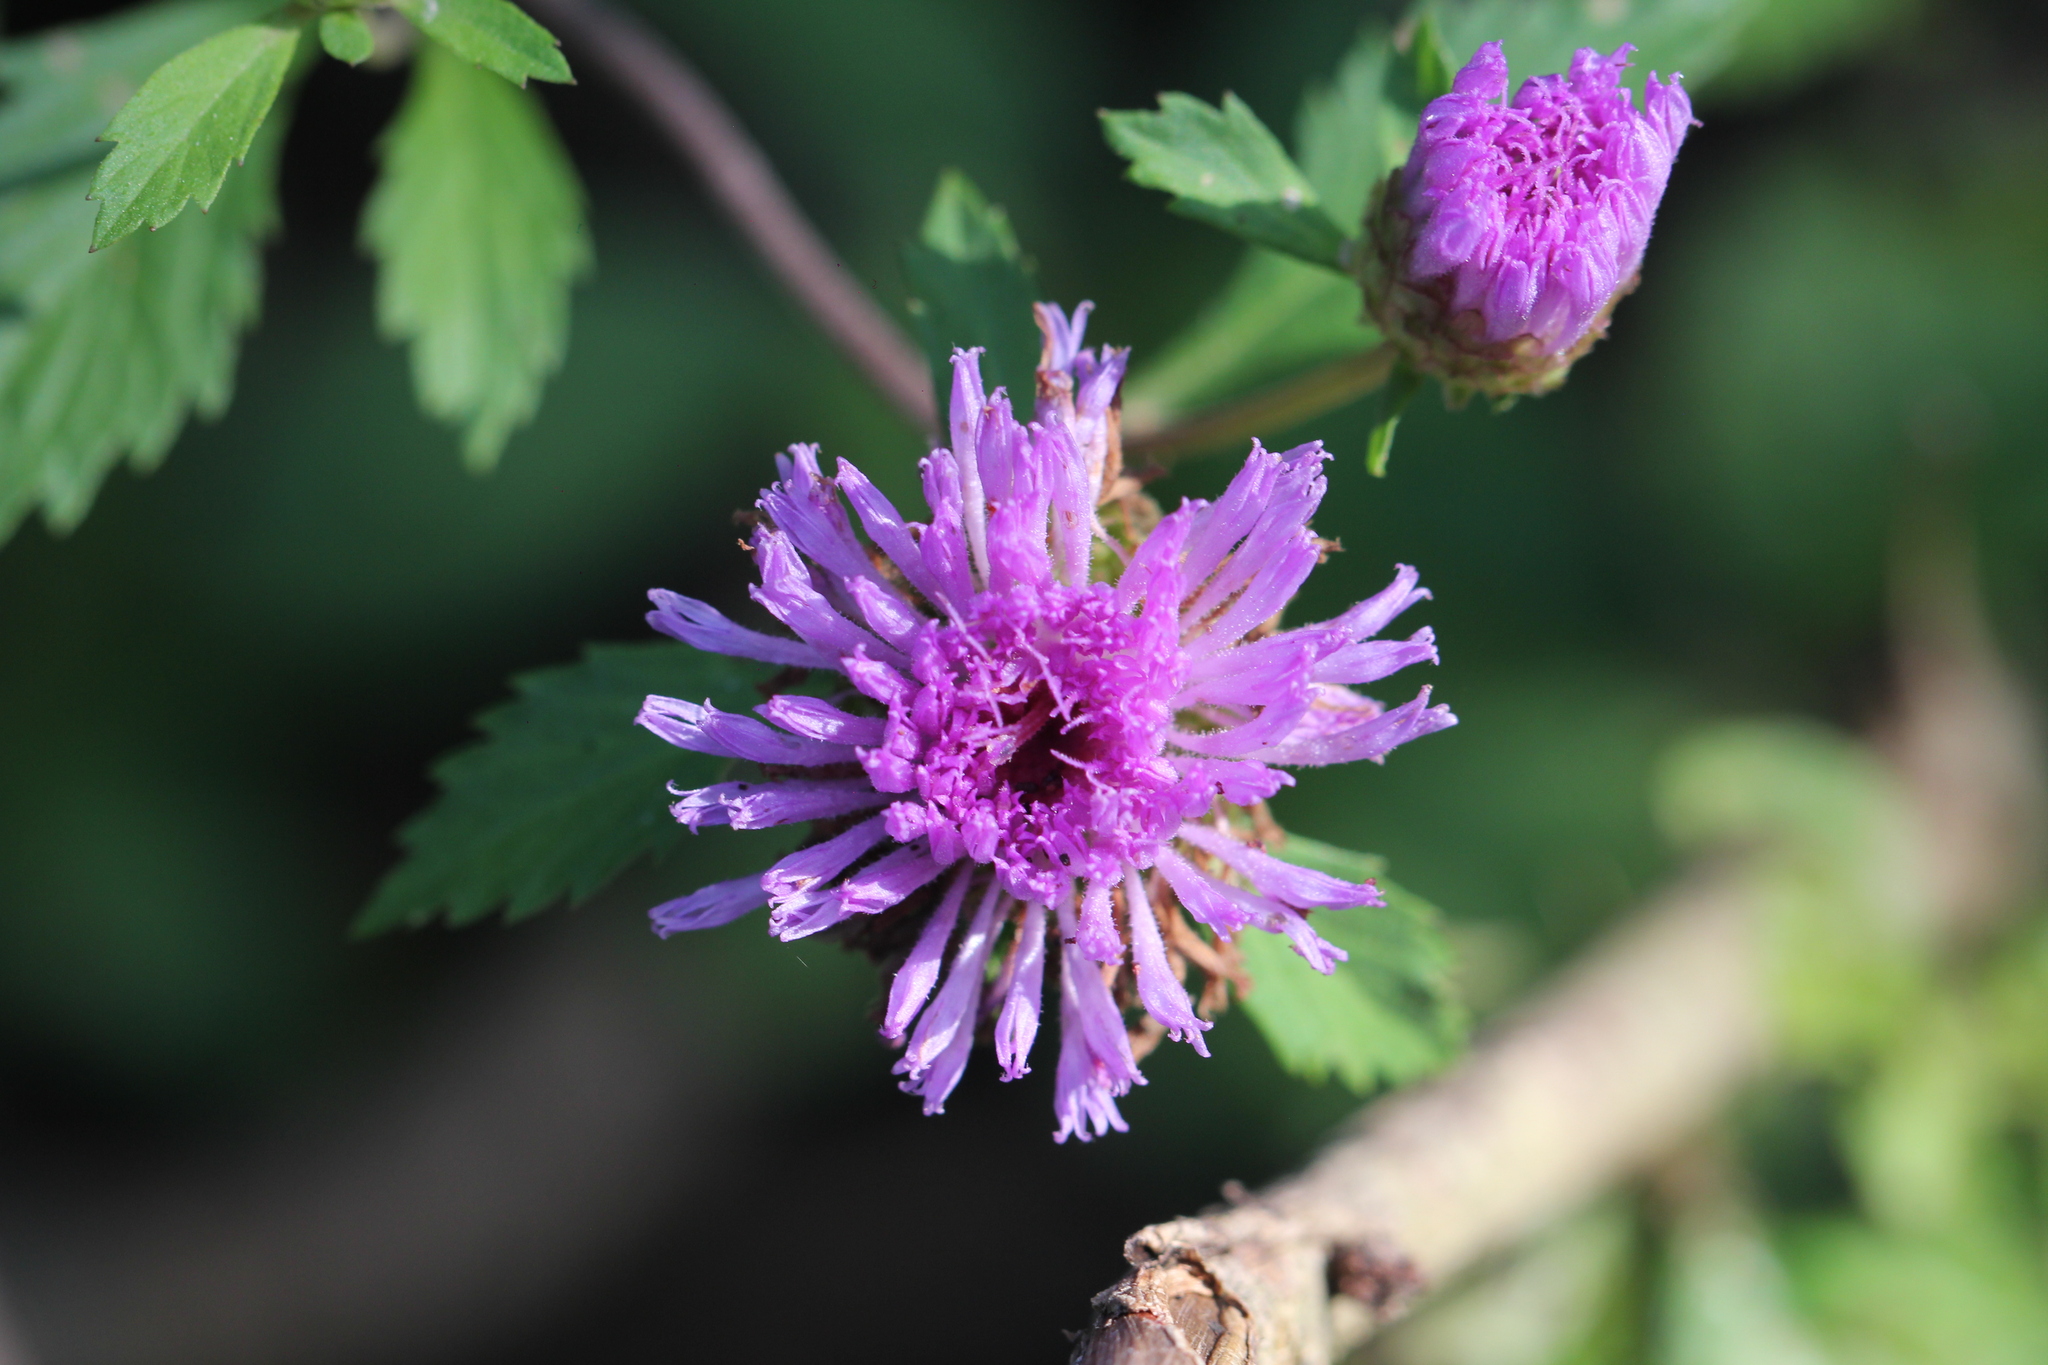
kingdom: Plantae
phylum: Tracheophyta
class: Magnoliopsida
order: Asterales
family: Asteraceae
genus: Centratherum
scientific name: Centratherum punctatum
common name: Larkdaisy
